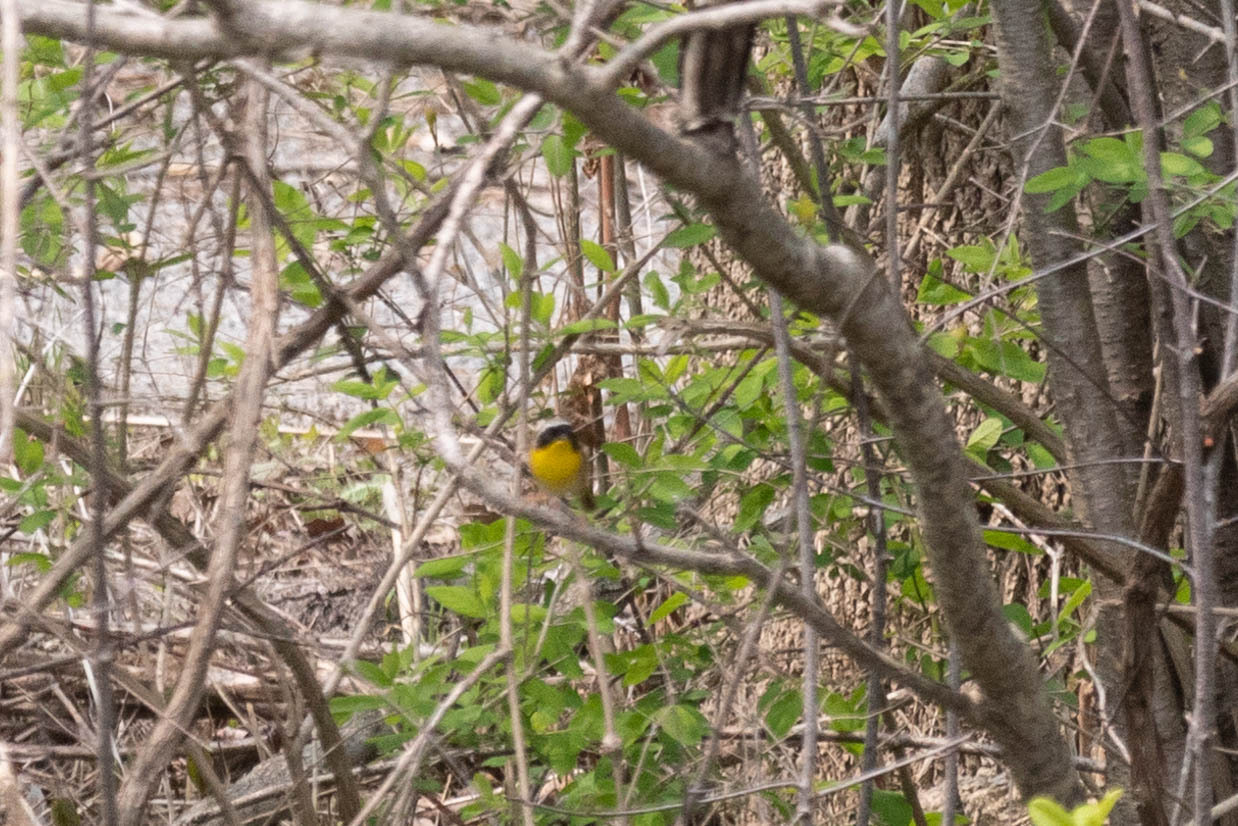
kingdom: Animalia
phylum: Chordata
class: Aves
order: Passeriformes
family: Parulidae
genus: Geothlypis
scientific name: Geothlypis trichas
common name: Common yellowthroat
